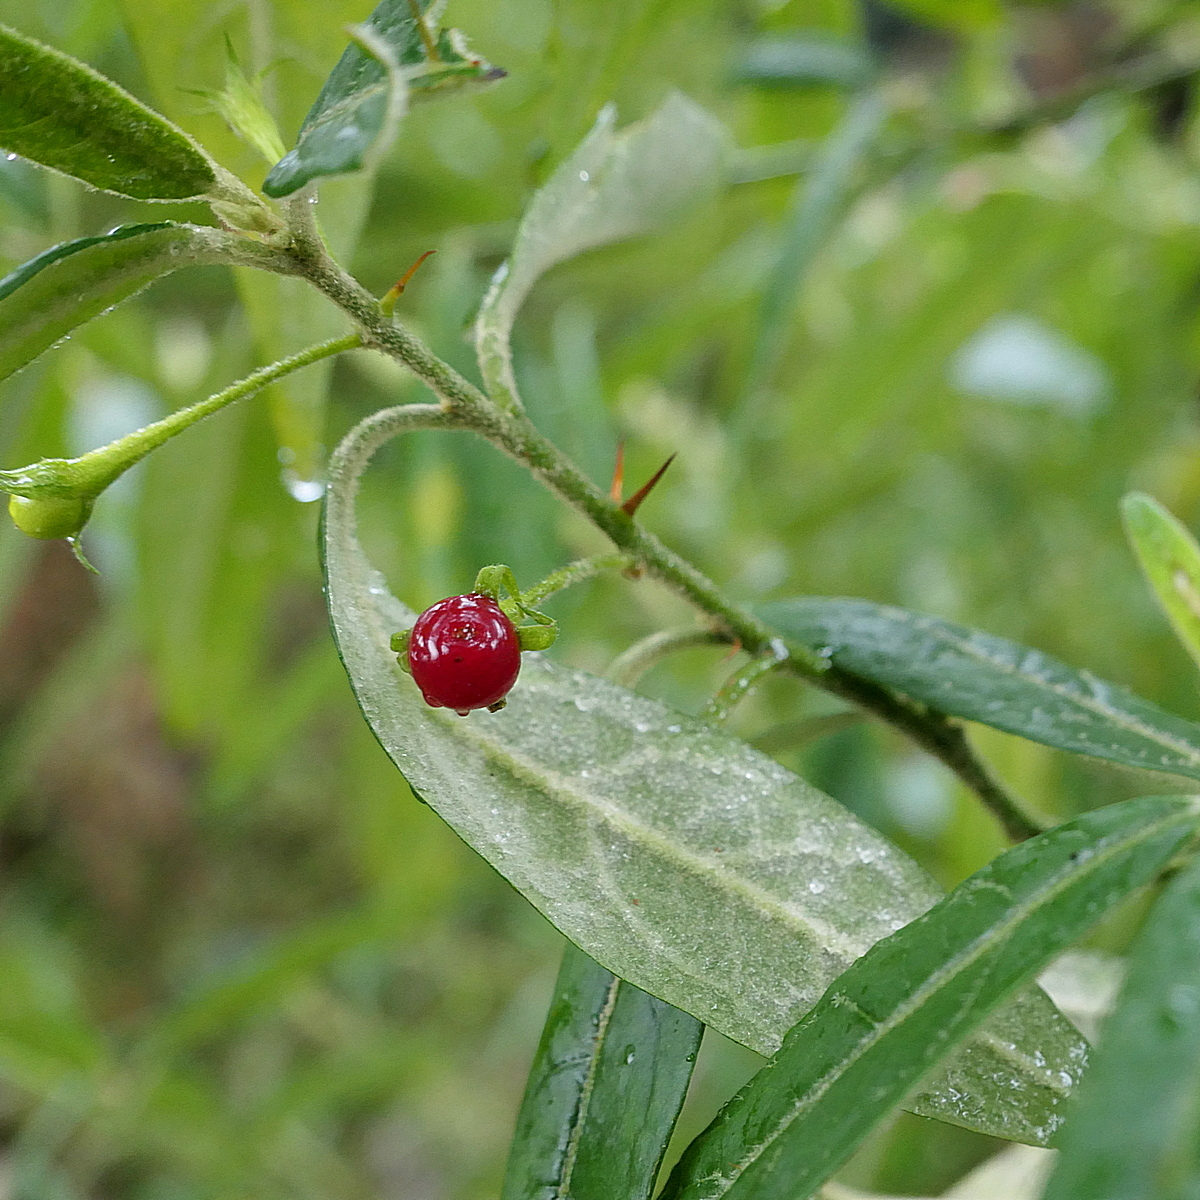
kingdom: Plantae
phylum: Tracheophyta
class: Magnoliopsida
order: Solanales
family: Solanaceae
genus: Solanum
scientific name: Solanum stelligerum
